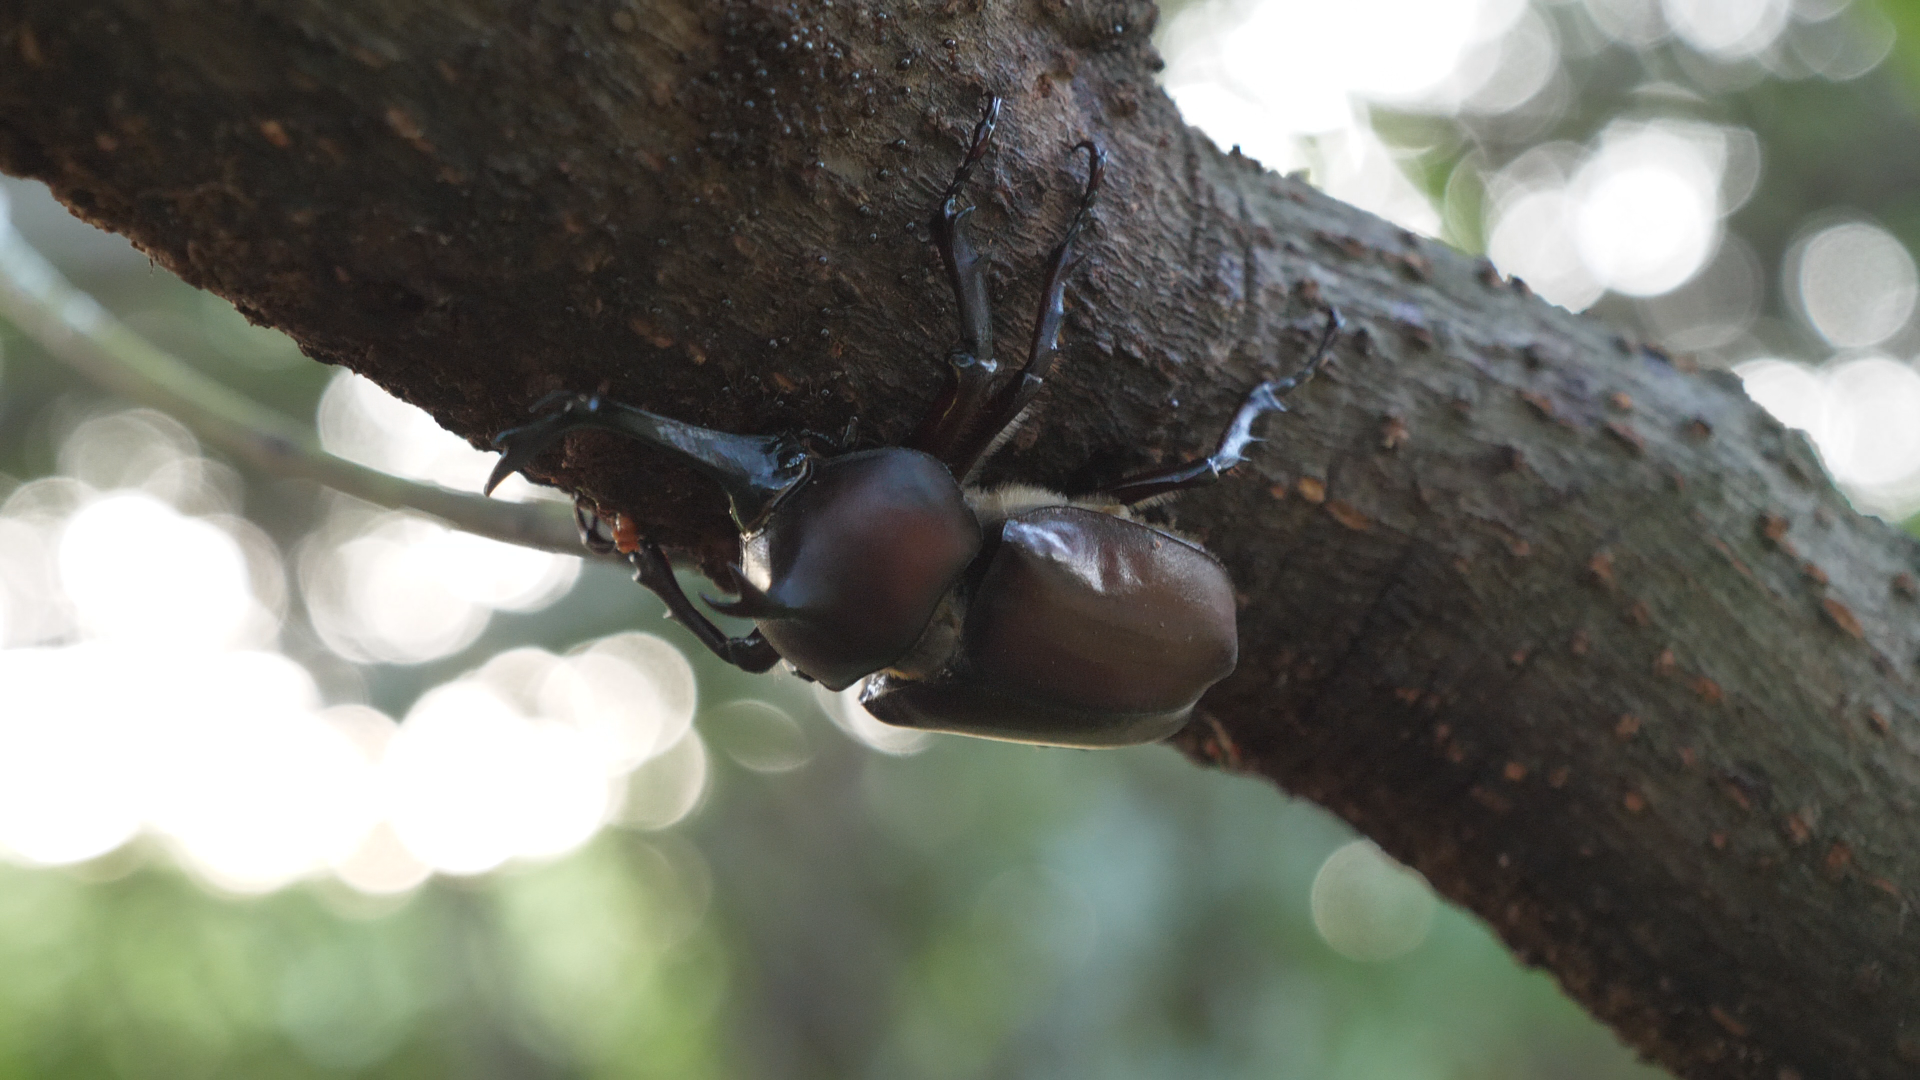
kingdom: Animalia
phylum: Arthropoda
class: Insecta
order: Coleoptera
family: Scarabaeidae
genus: Trypoxylus
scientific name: Trypoxylus dichotomus
